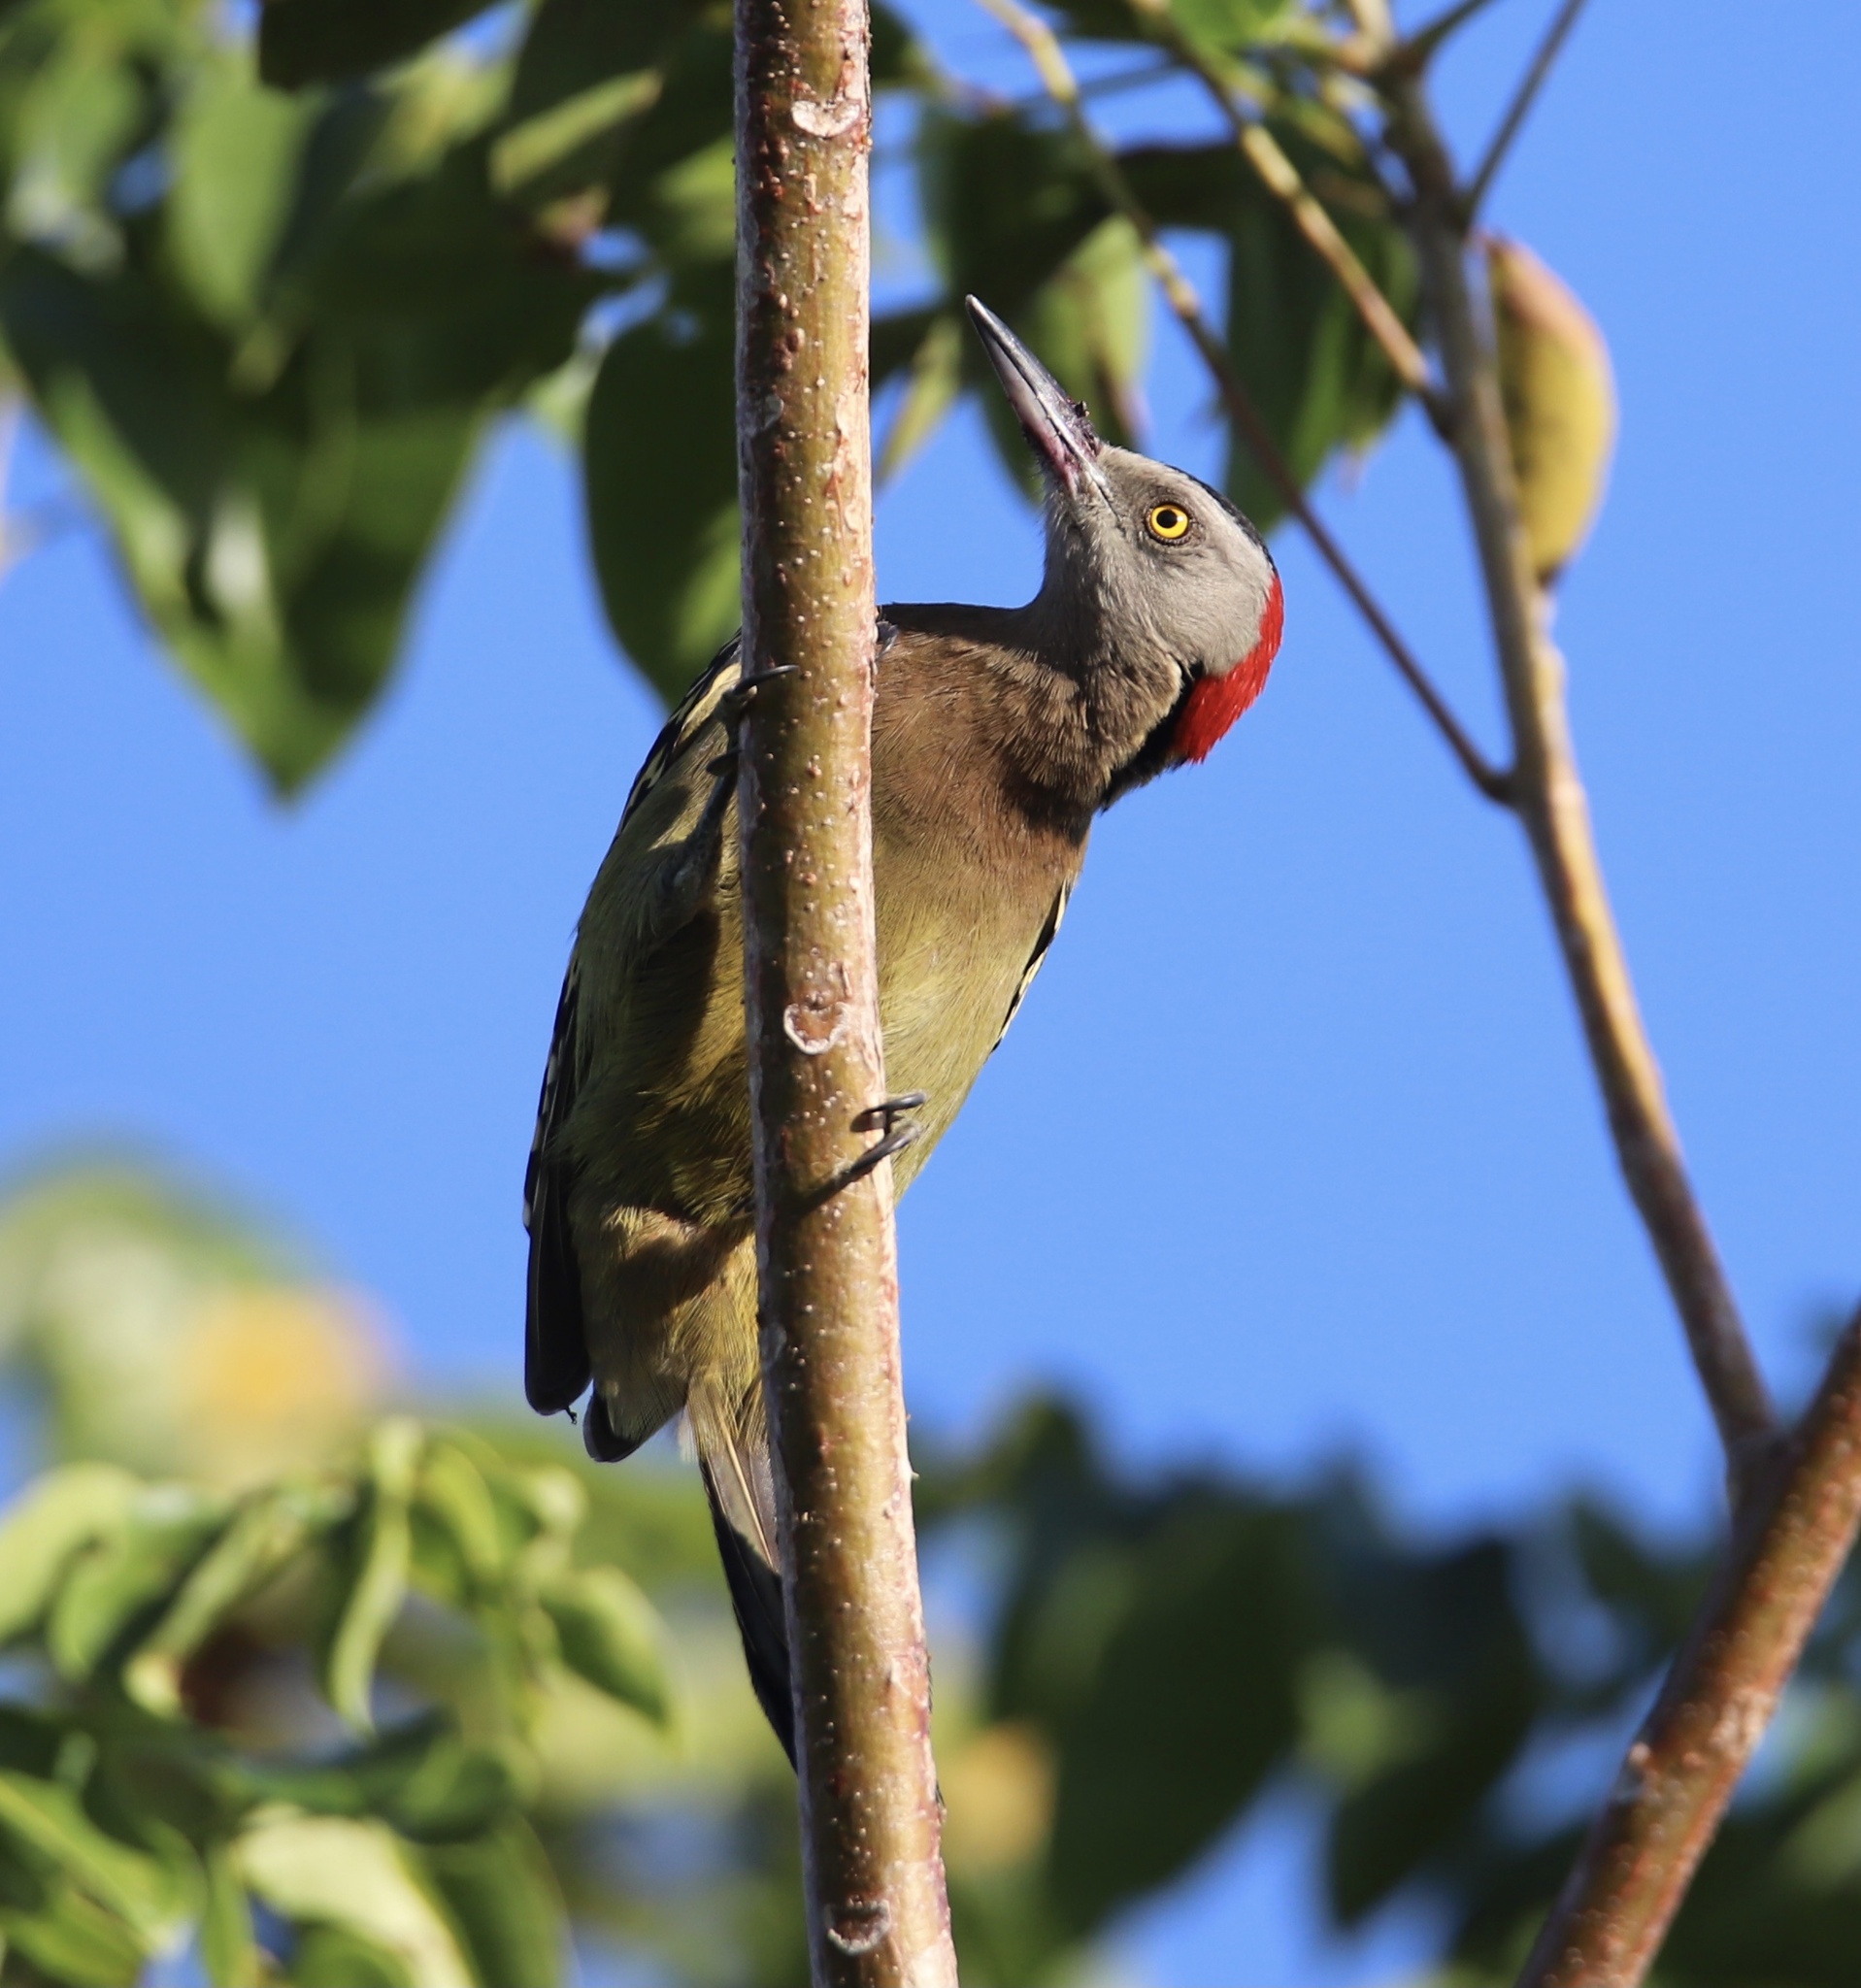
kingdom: Animalia
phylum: Chordata
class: Aves
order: Piciformes
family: Picidae
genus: Melanerpes
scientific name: Melanerpes striatus
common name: Hispaniolan woodpecker
